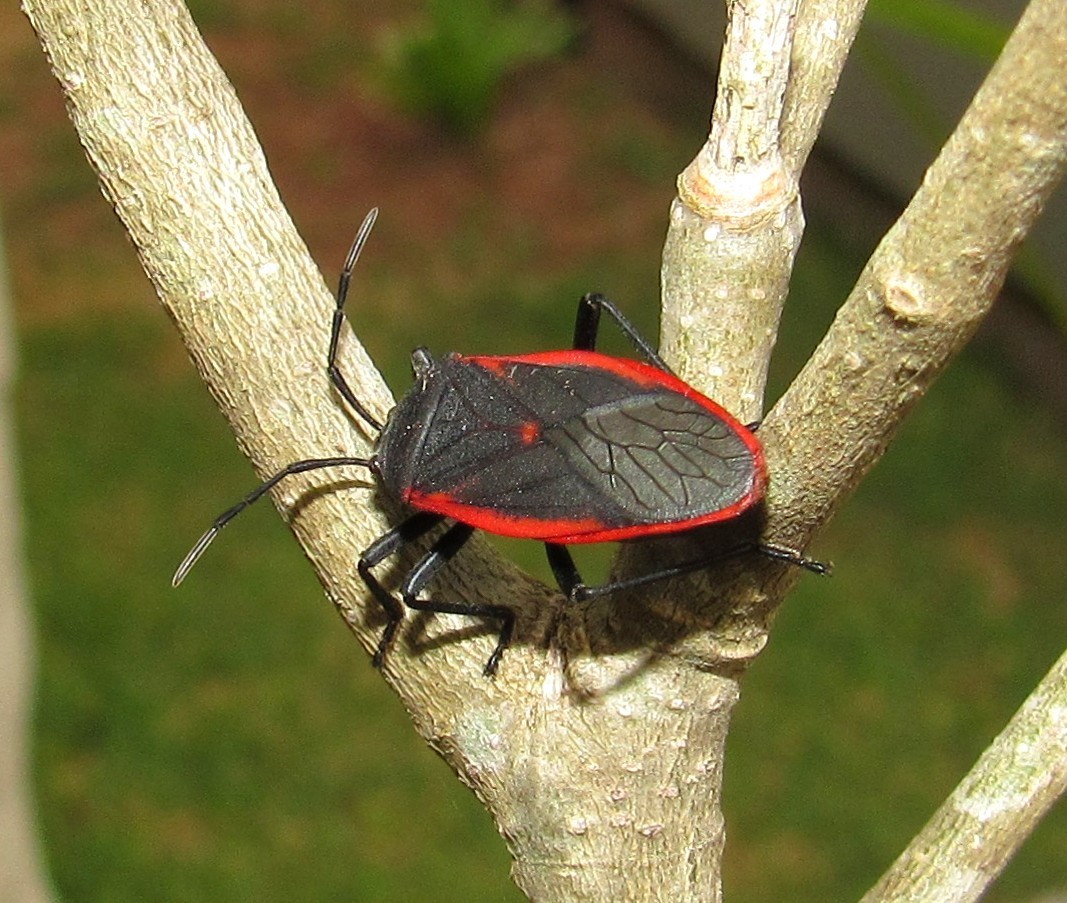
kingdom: Animalia
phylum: Arthropoda
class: Insecta
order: Hemiptera
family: Largidae
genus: Largus
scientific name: Largus rufipennis
